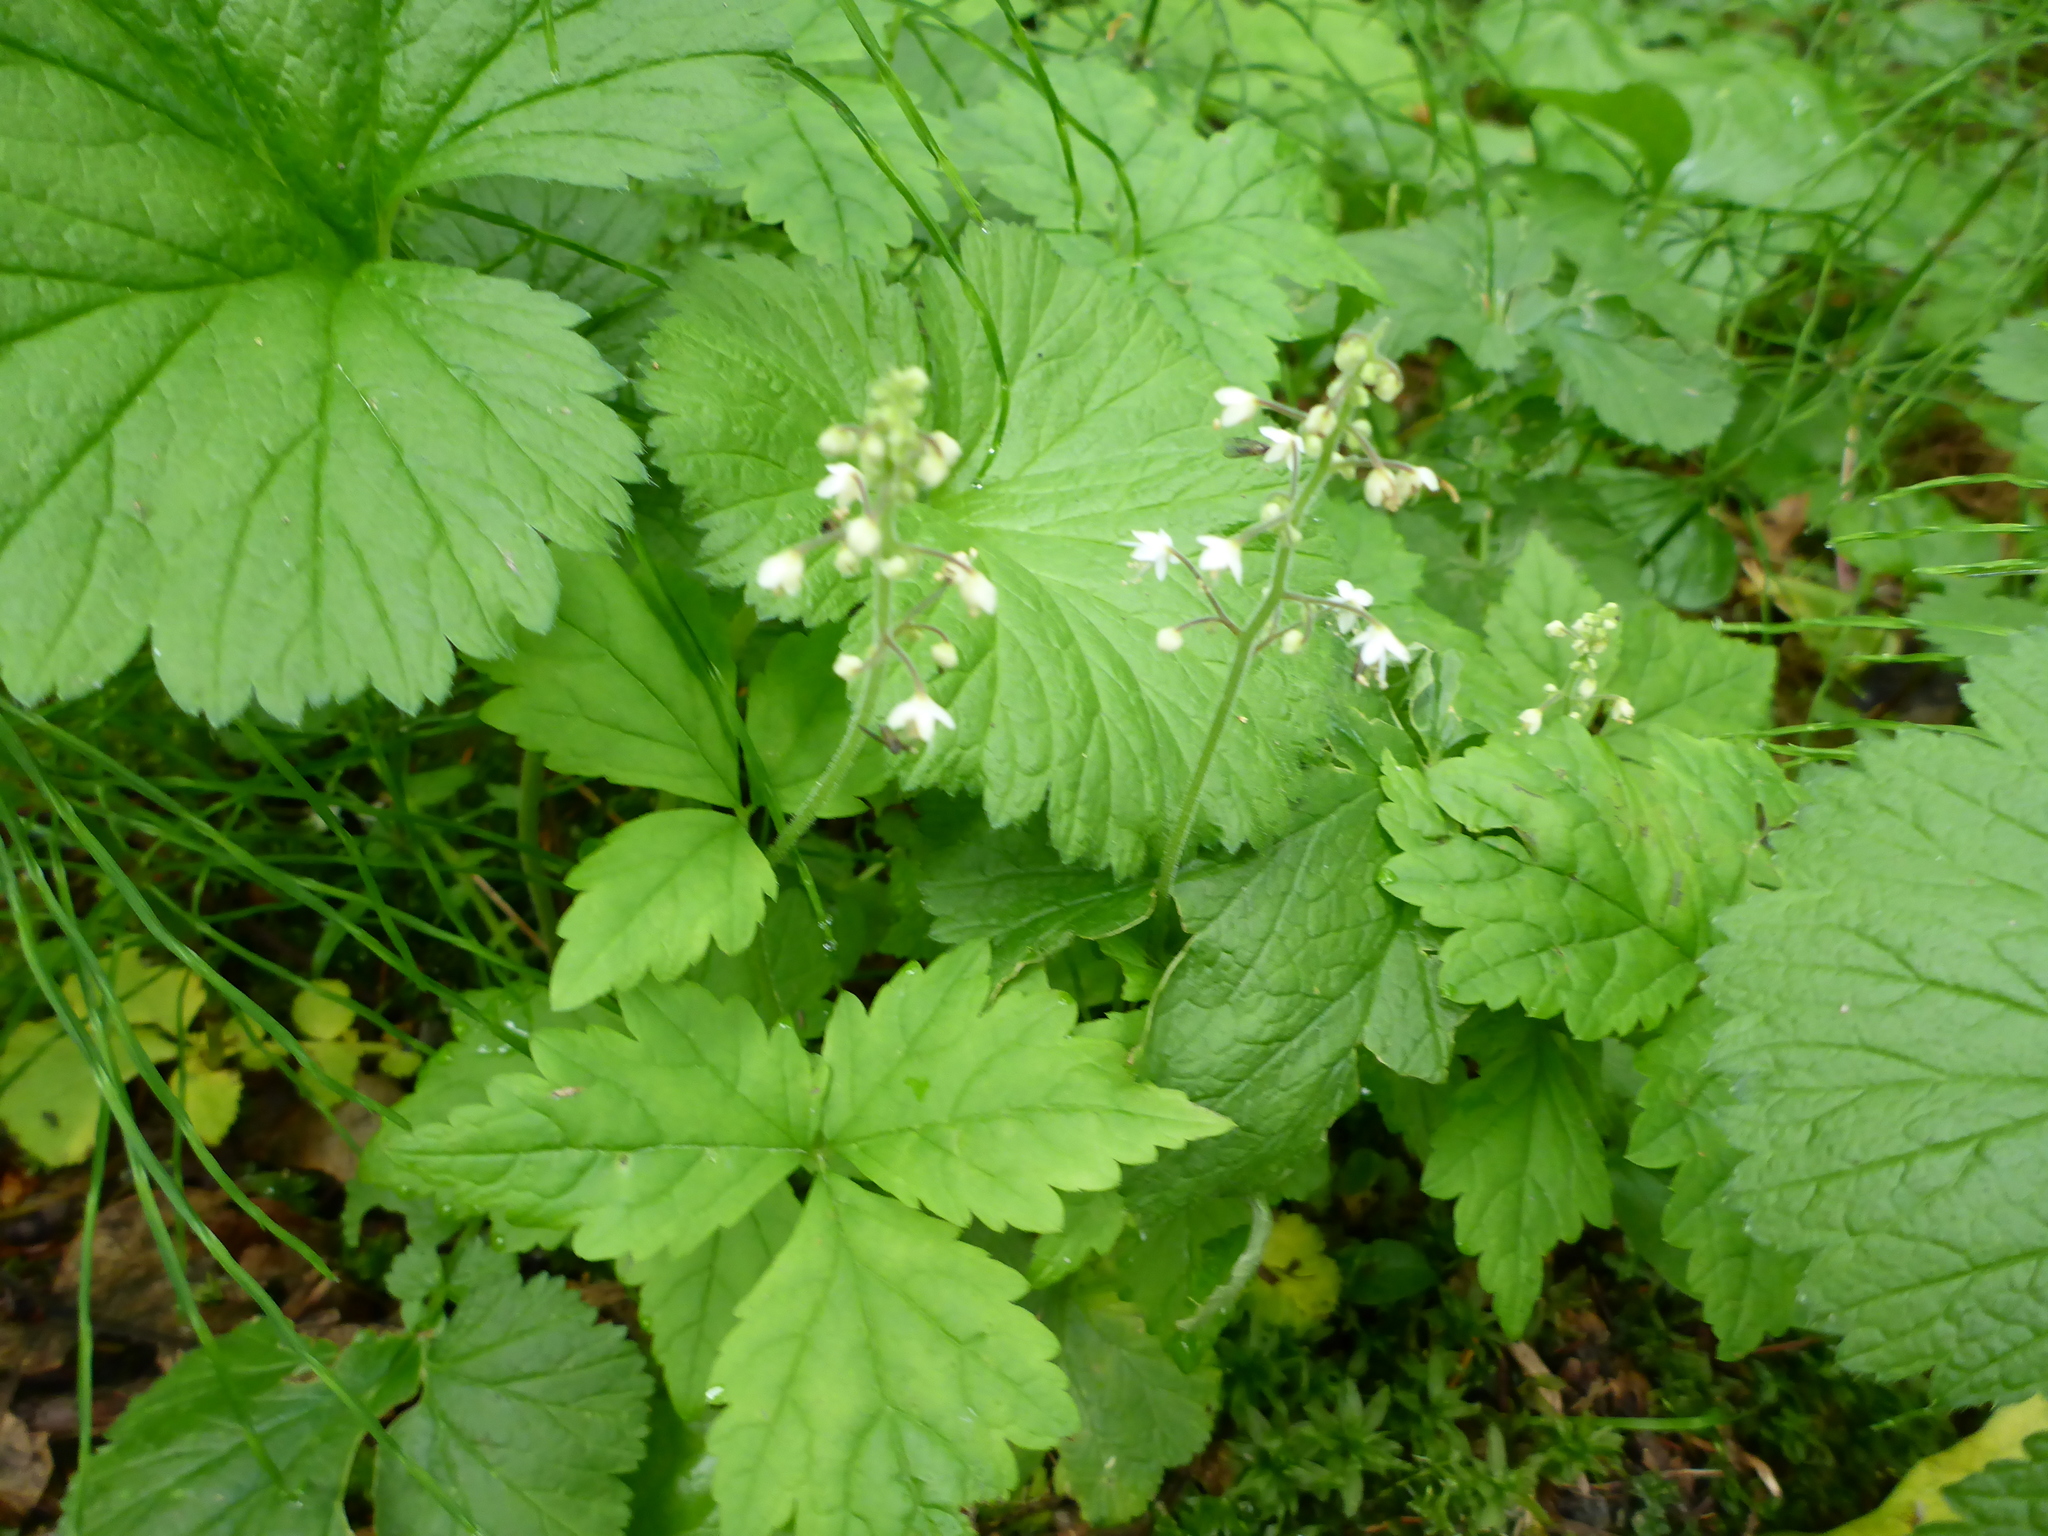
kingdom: Plantae
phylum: Tracheophyta
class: Magnoliopsida
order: Saxifragales
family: Saxifragaceae
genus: Tiarella
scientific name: Tiarella trifoliata
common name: Sugar-scoop
